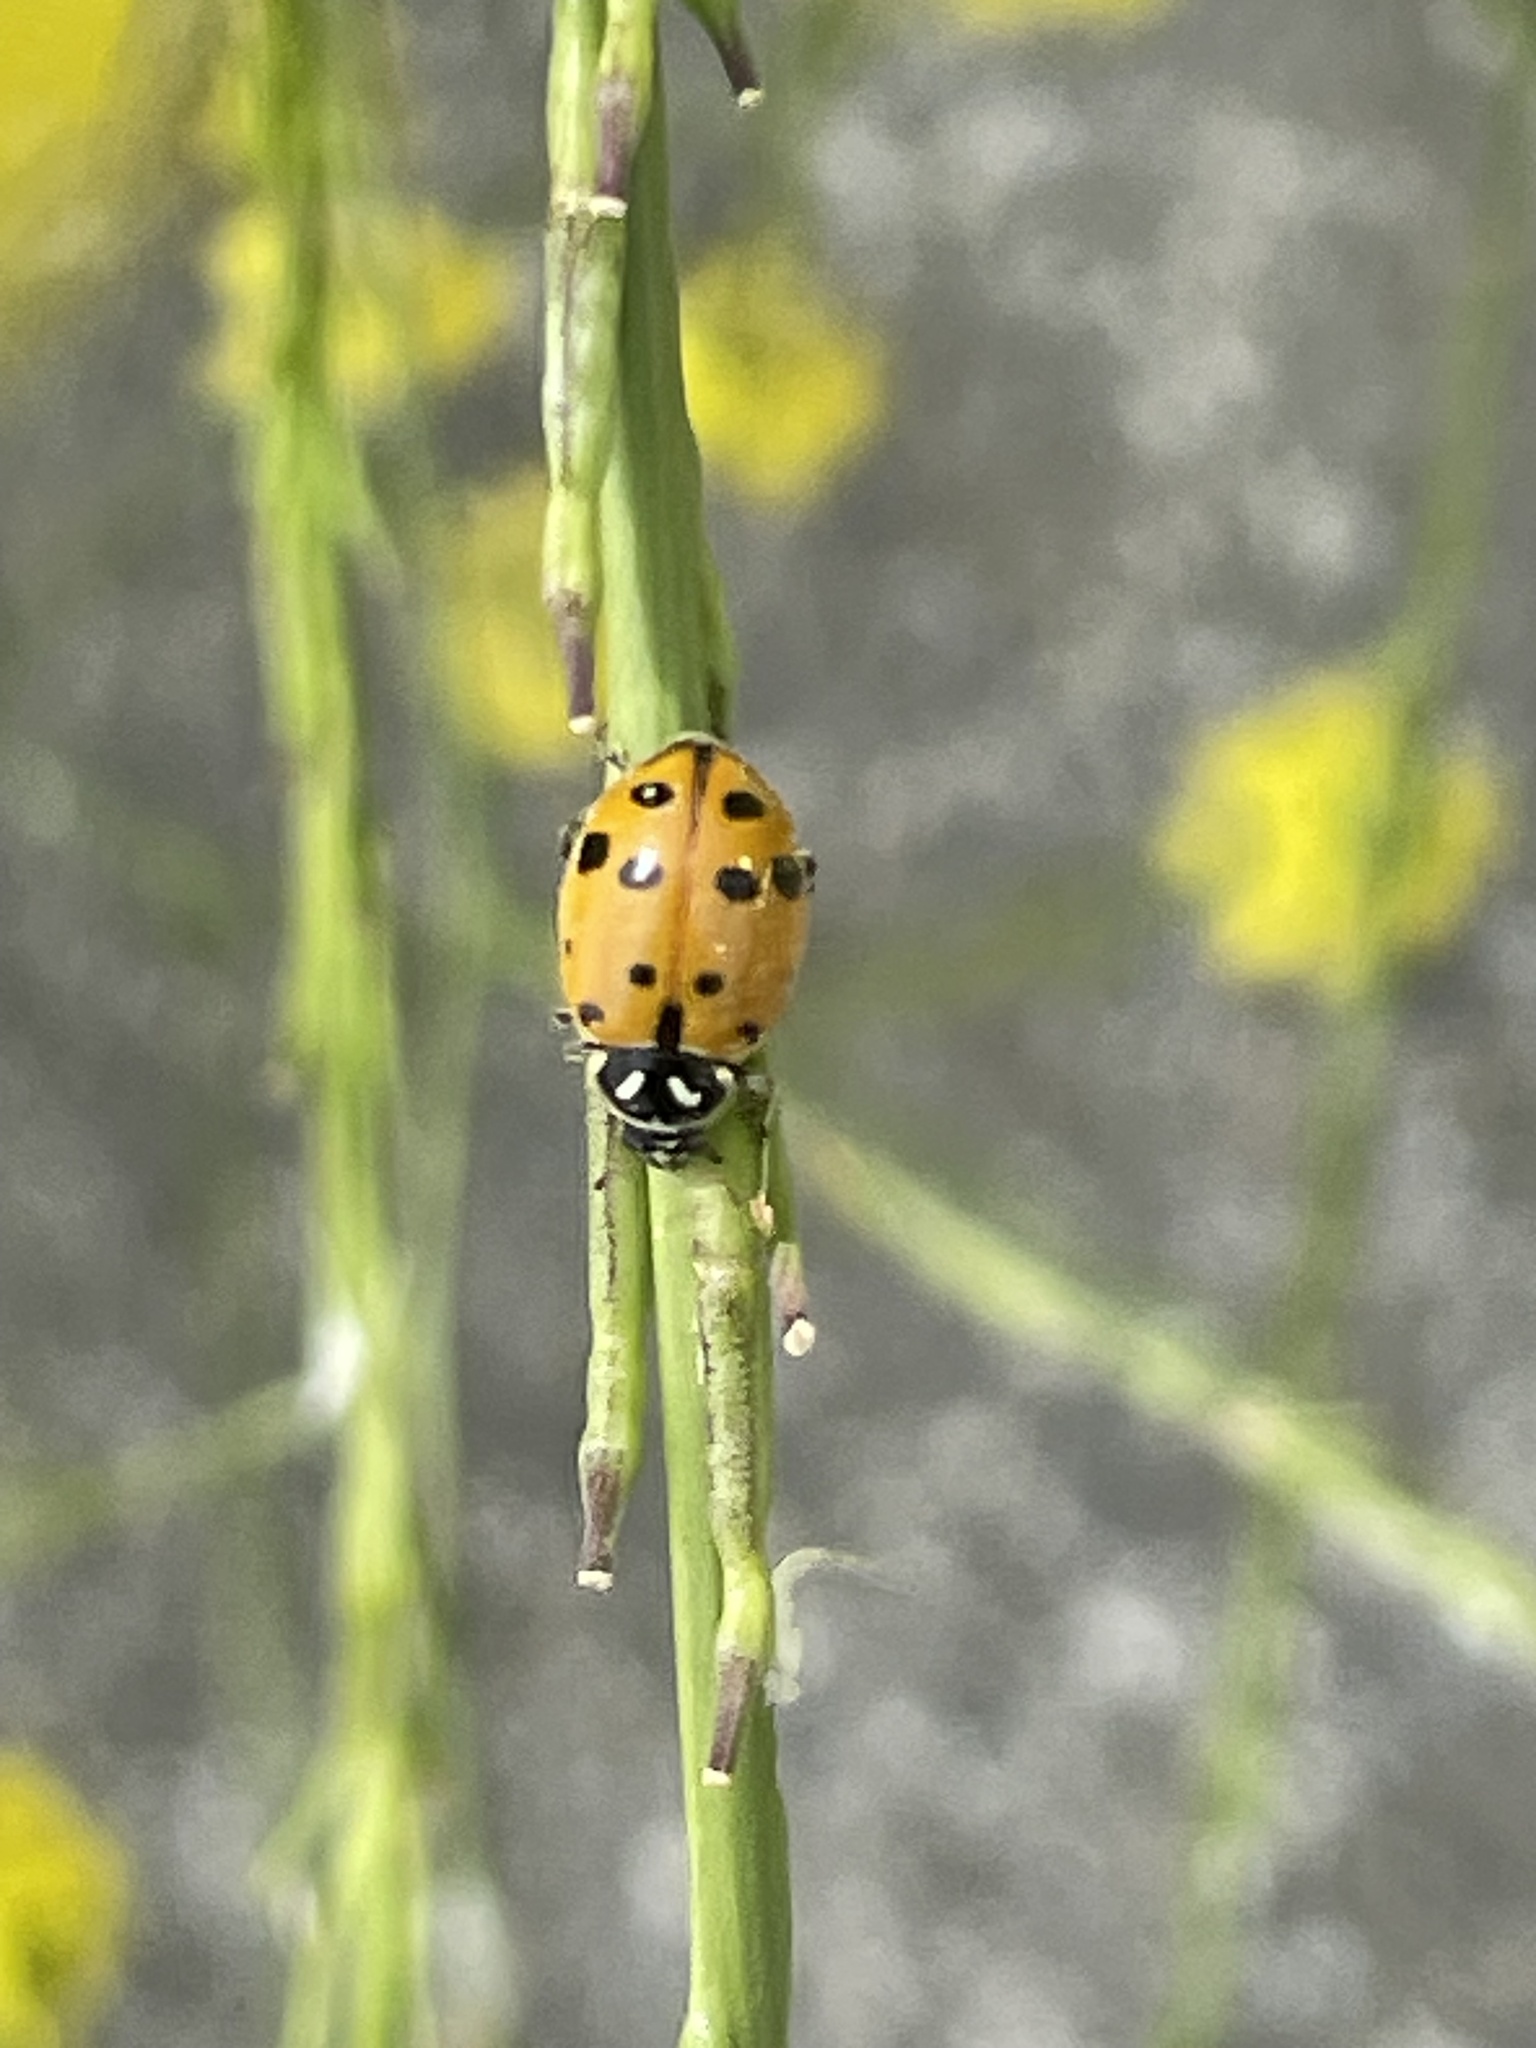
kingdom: Animalia
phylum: Arthropoda
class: Insecta
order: Coleoptera
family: Coccinellidae
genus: Hippodamia
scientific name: Hippodamia convergens
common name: Convergent lady beetle
